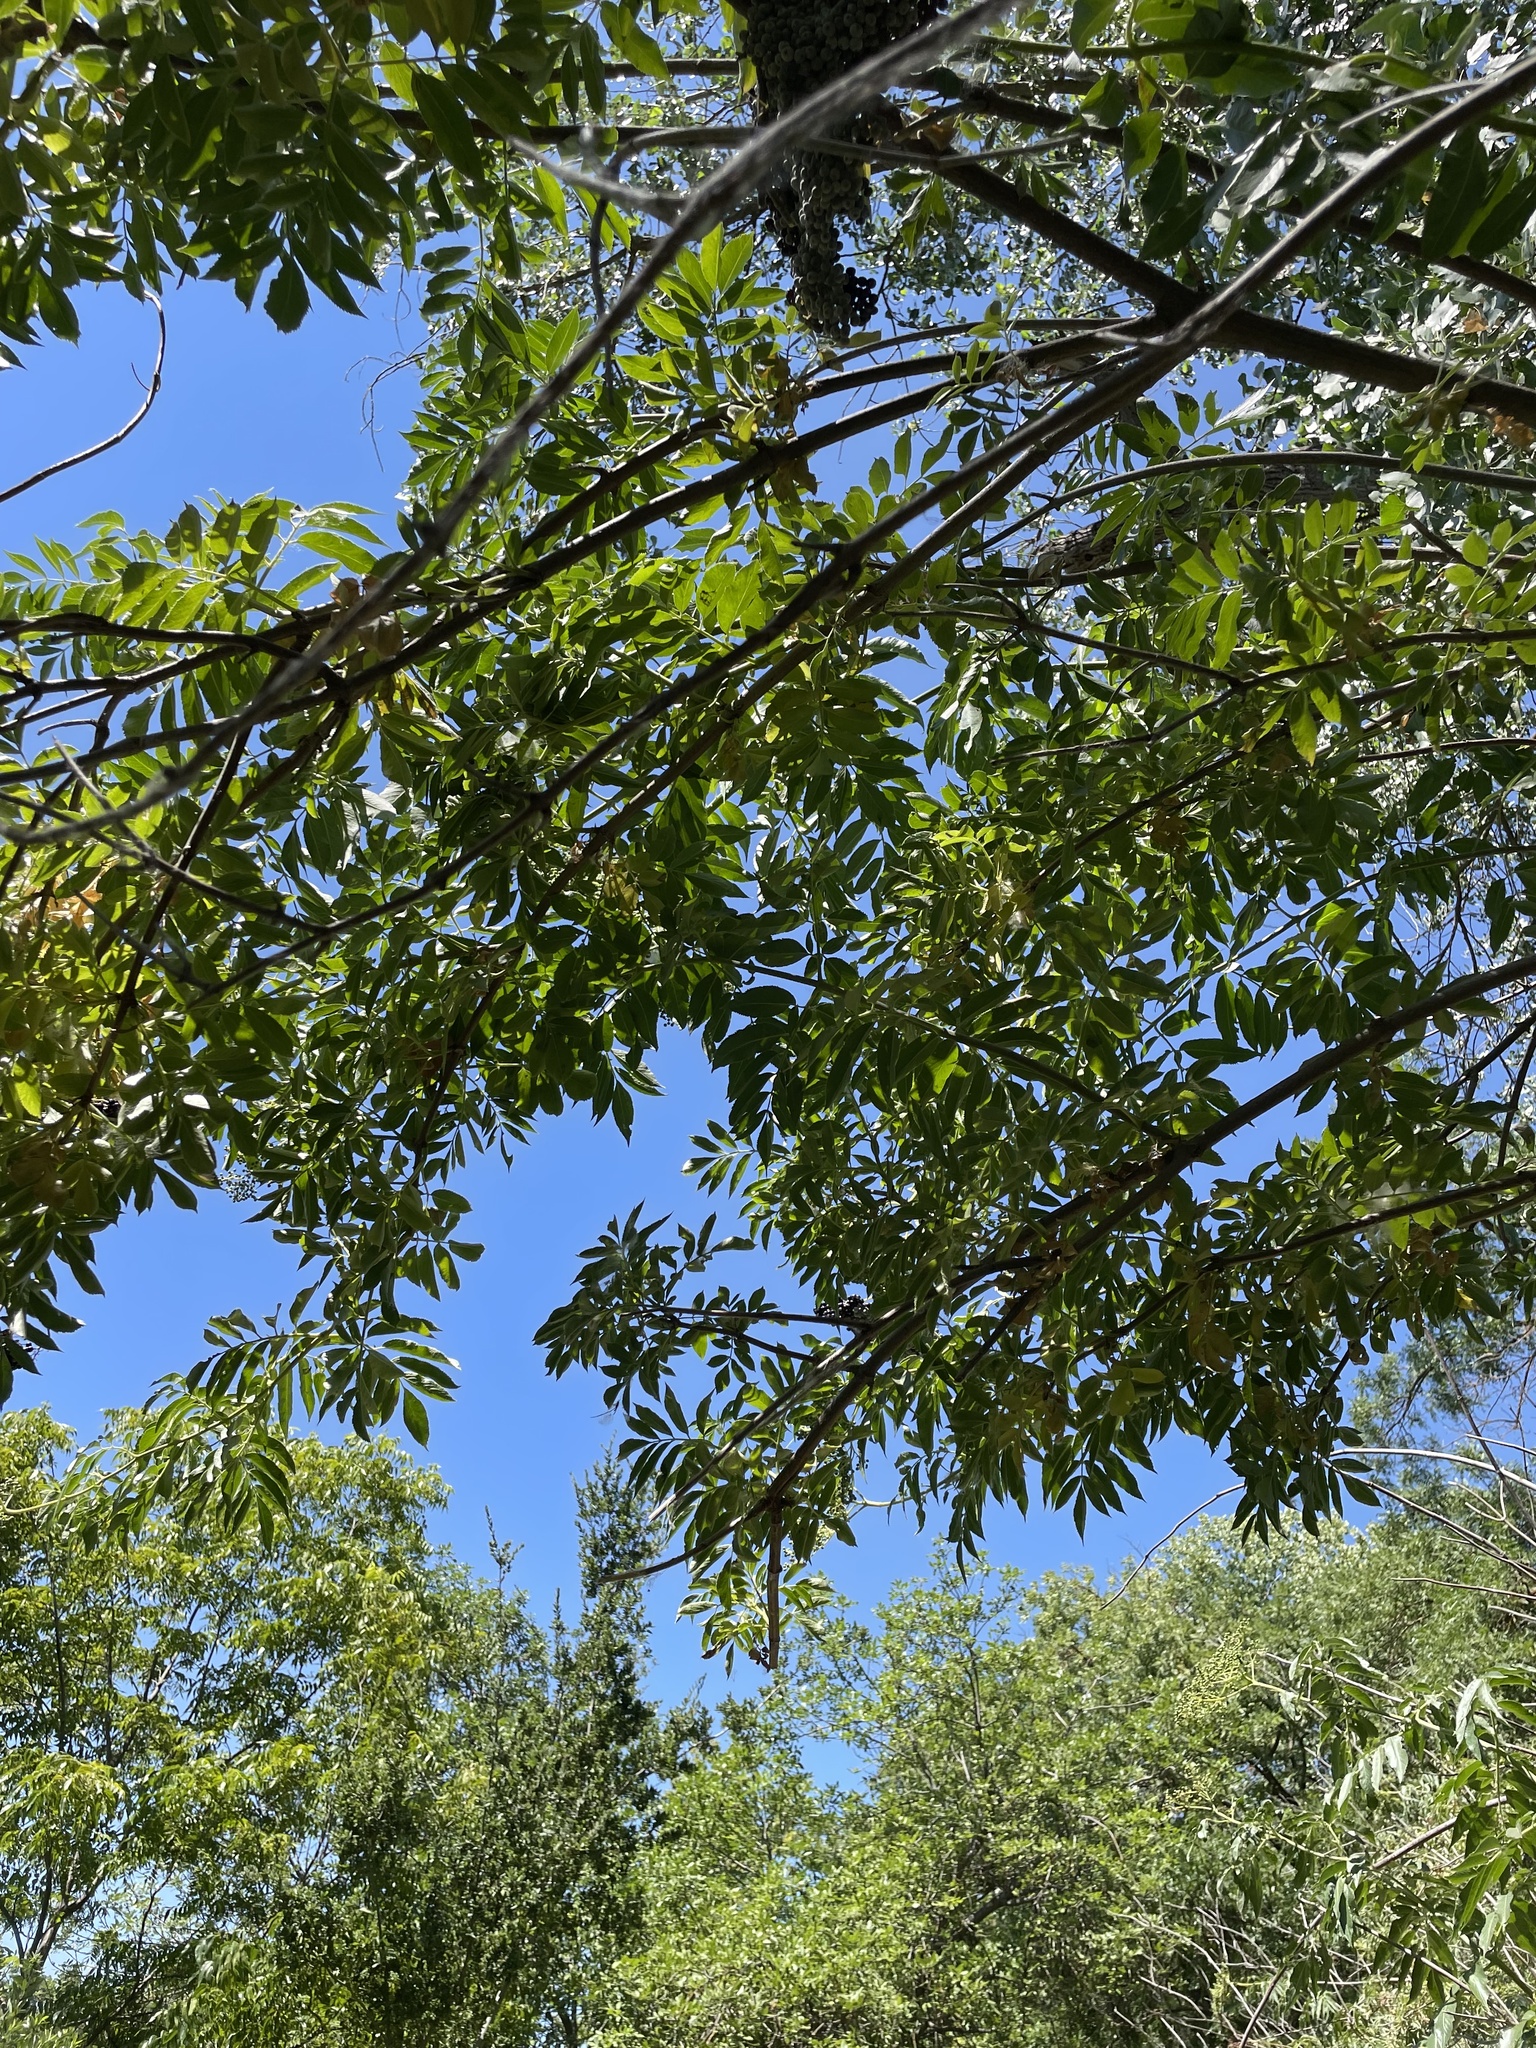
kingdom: Plantae
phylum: Tracheophyta
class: Magnoliopsida
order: Dipsacales
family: Viburnaceae
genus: Sambucus
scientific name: Sambucus cerulea
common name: Blue elder
